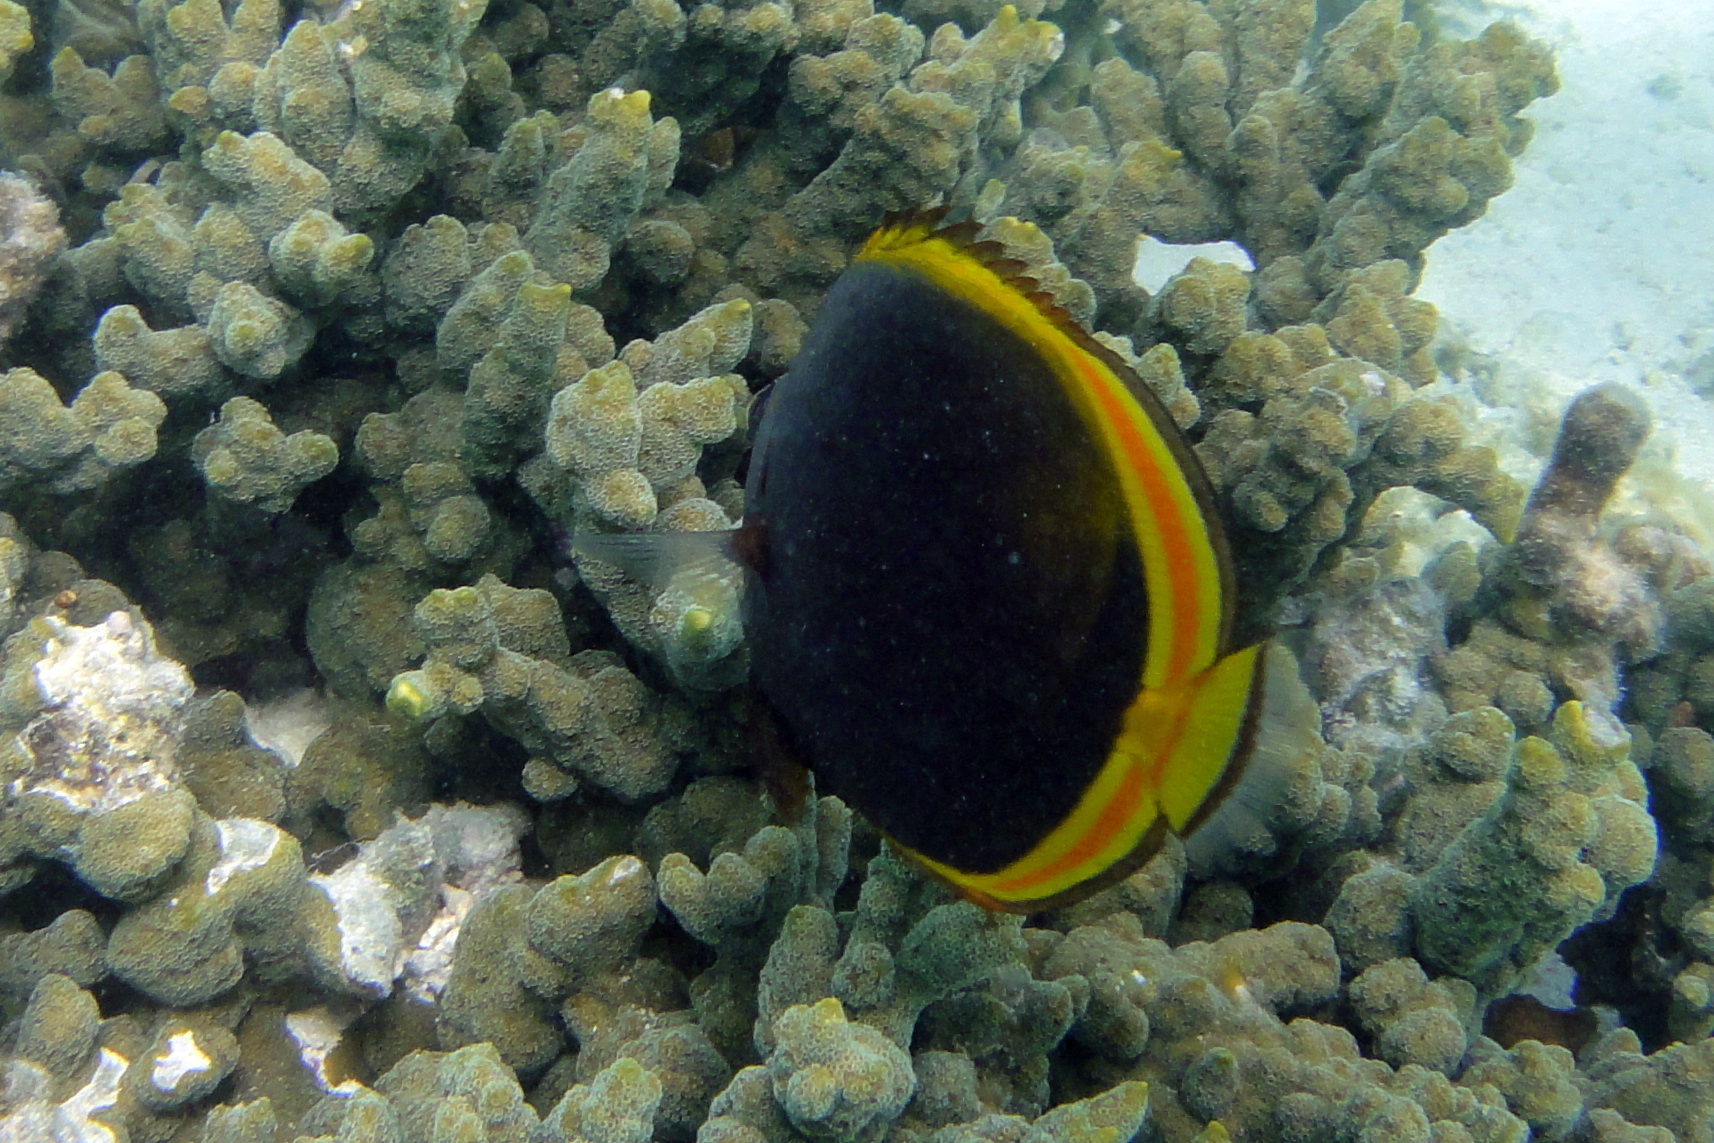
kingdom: Animalia
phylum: Chordata
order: Perciformes
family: Chaetodontidae
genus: Chaetodon
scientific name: Chaetodon flavirostris
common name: Black butterflyfish
